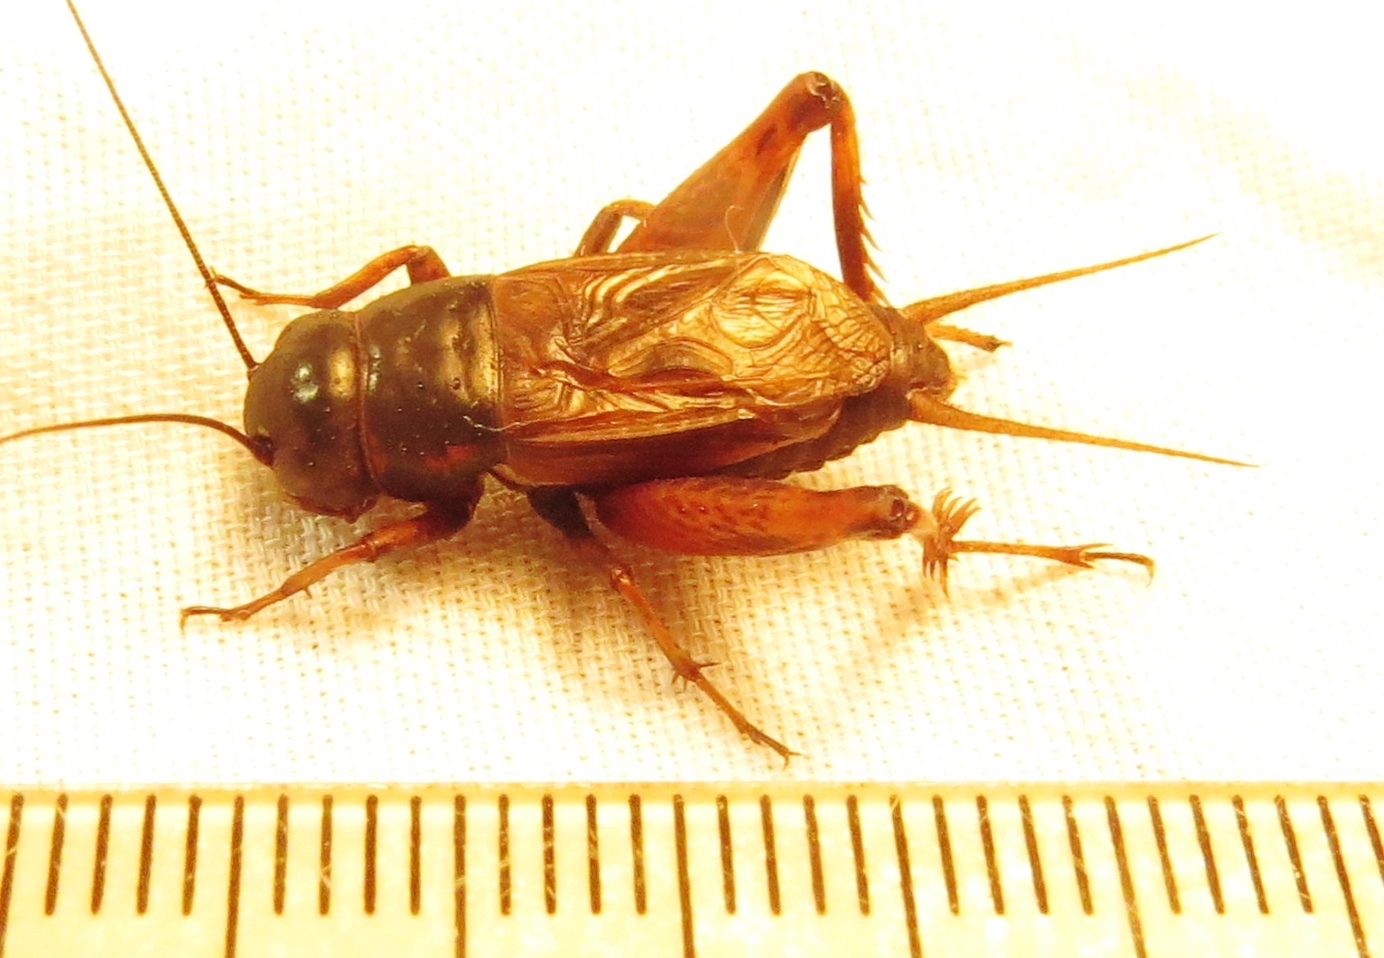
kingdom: Animalia
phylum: Arthropoda
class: Insecta
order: Orthoptera
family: Gryllidae
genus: Gryllus
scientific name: Gryllus rubens
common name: Southeastern field cricket
